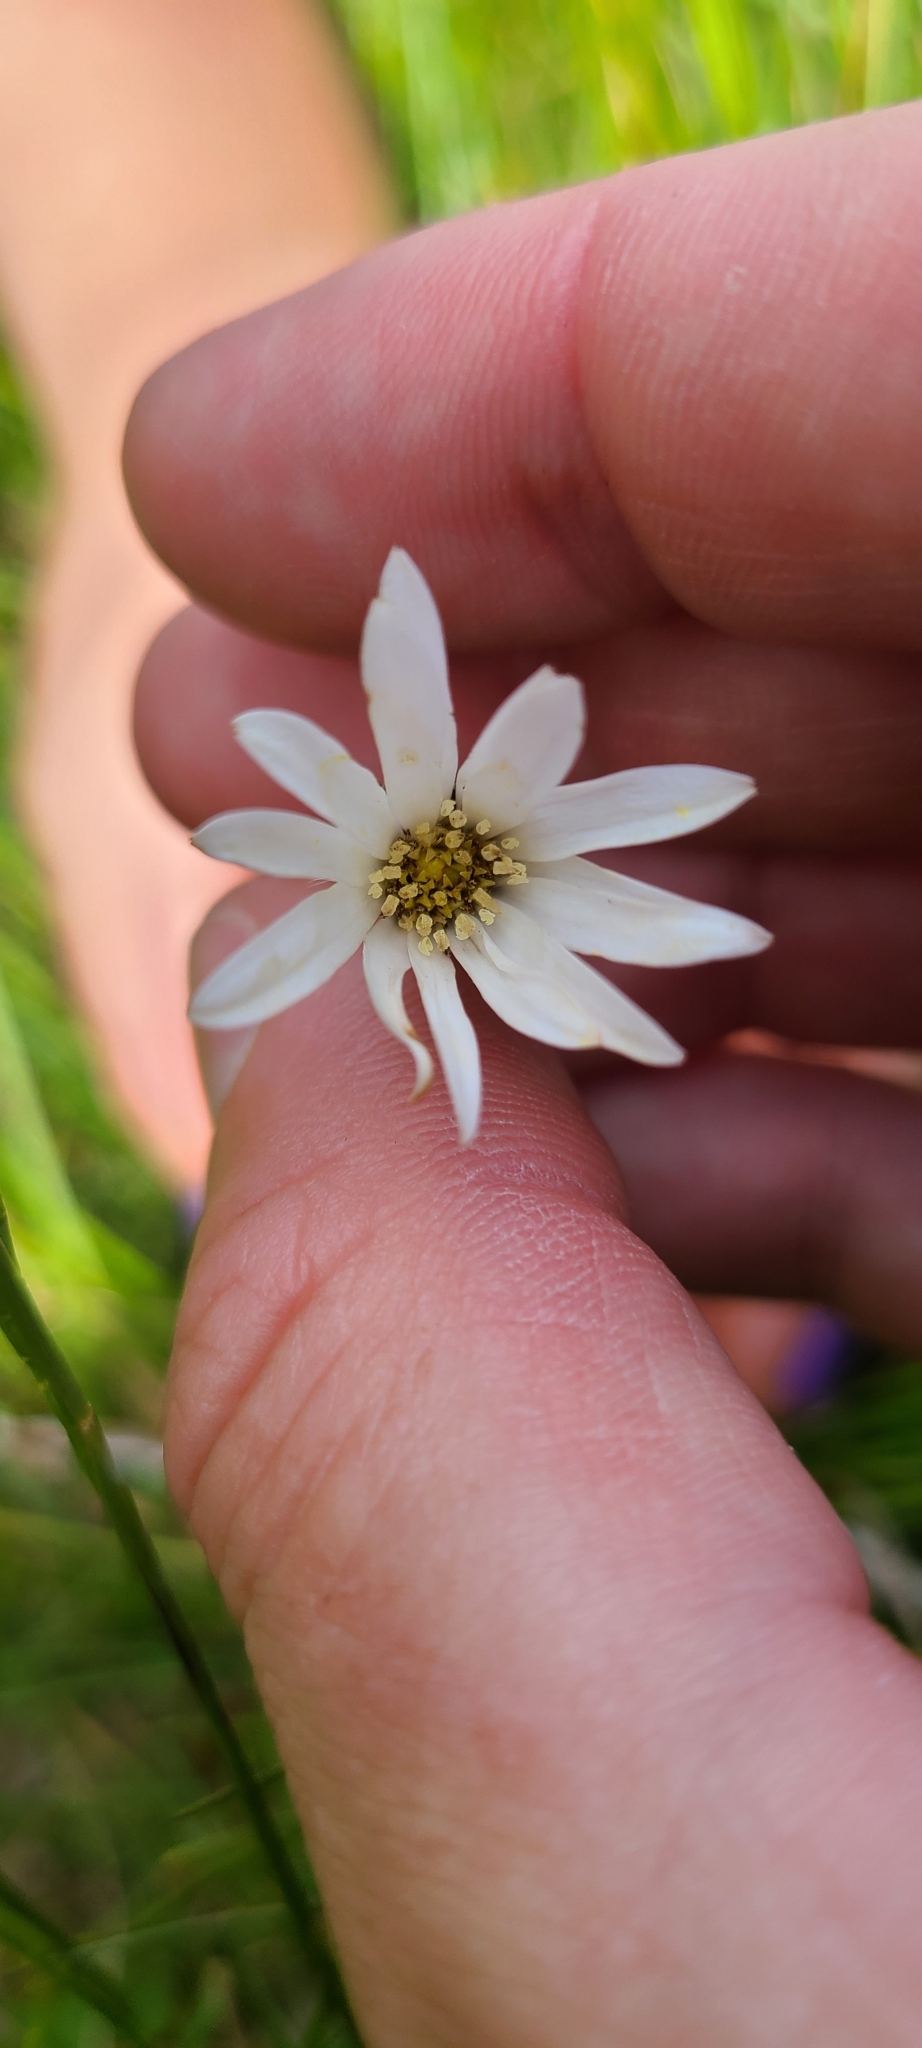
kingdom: Plantae
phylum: Tracheophyta
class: Magnoliopsida
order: Asterales
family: Asteraceae
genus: Celmisia
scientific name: Celmisia gracilenta
